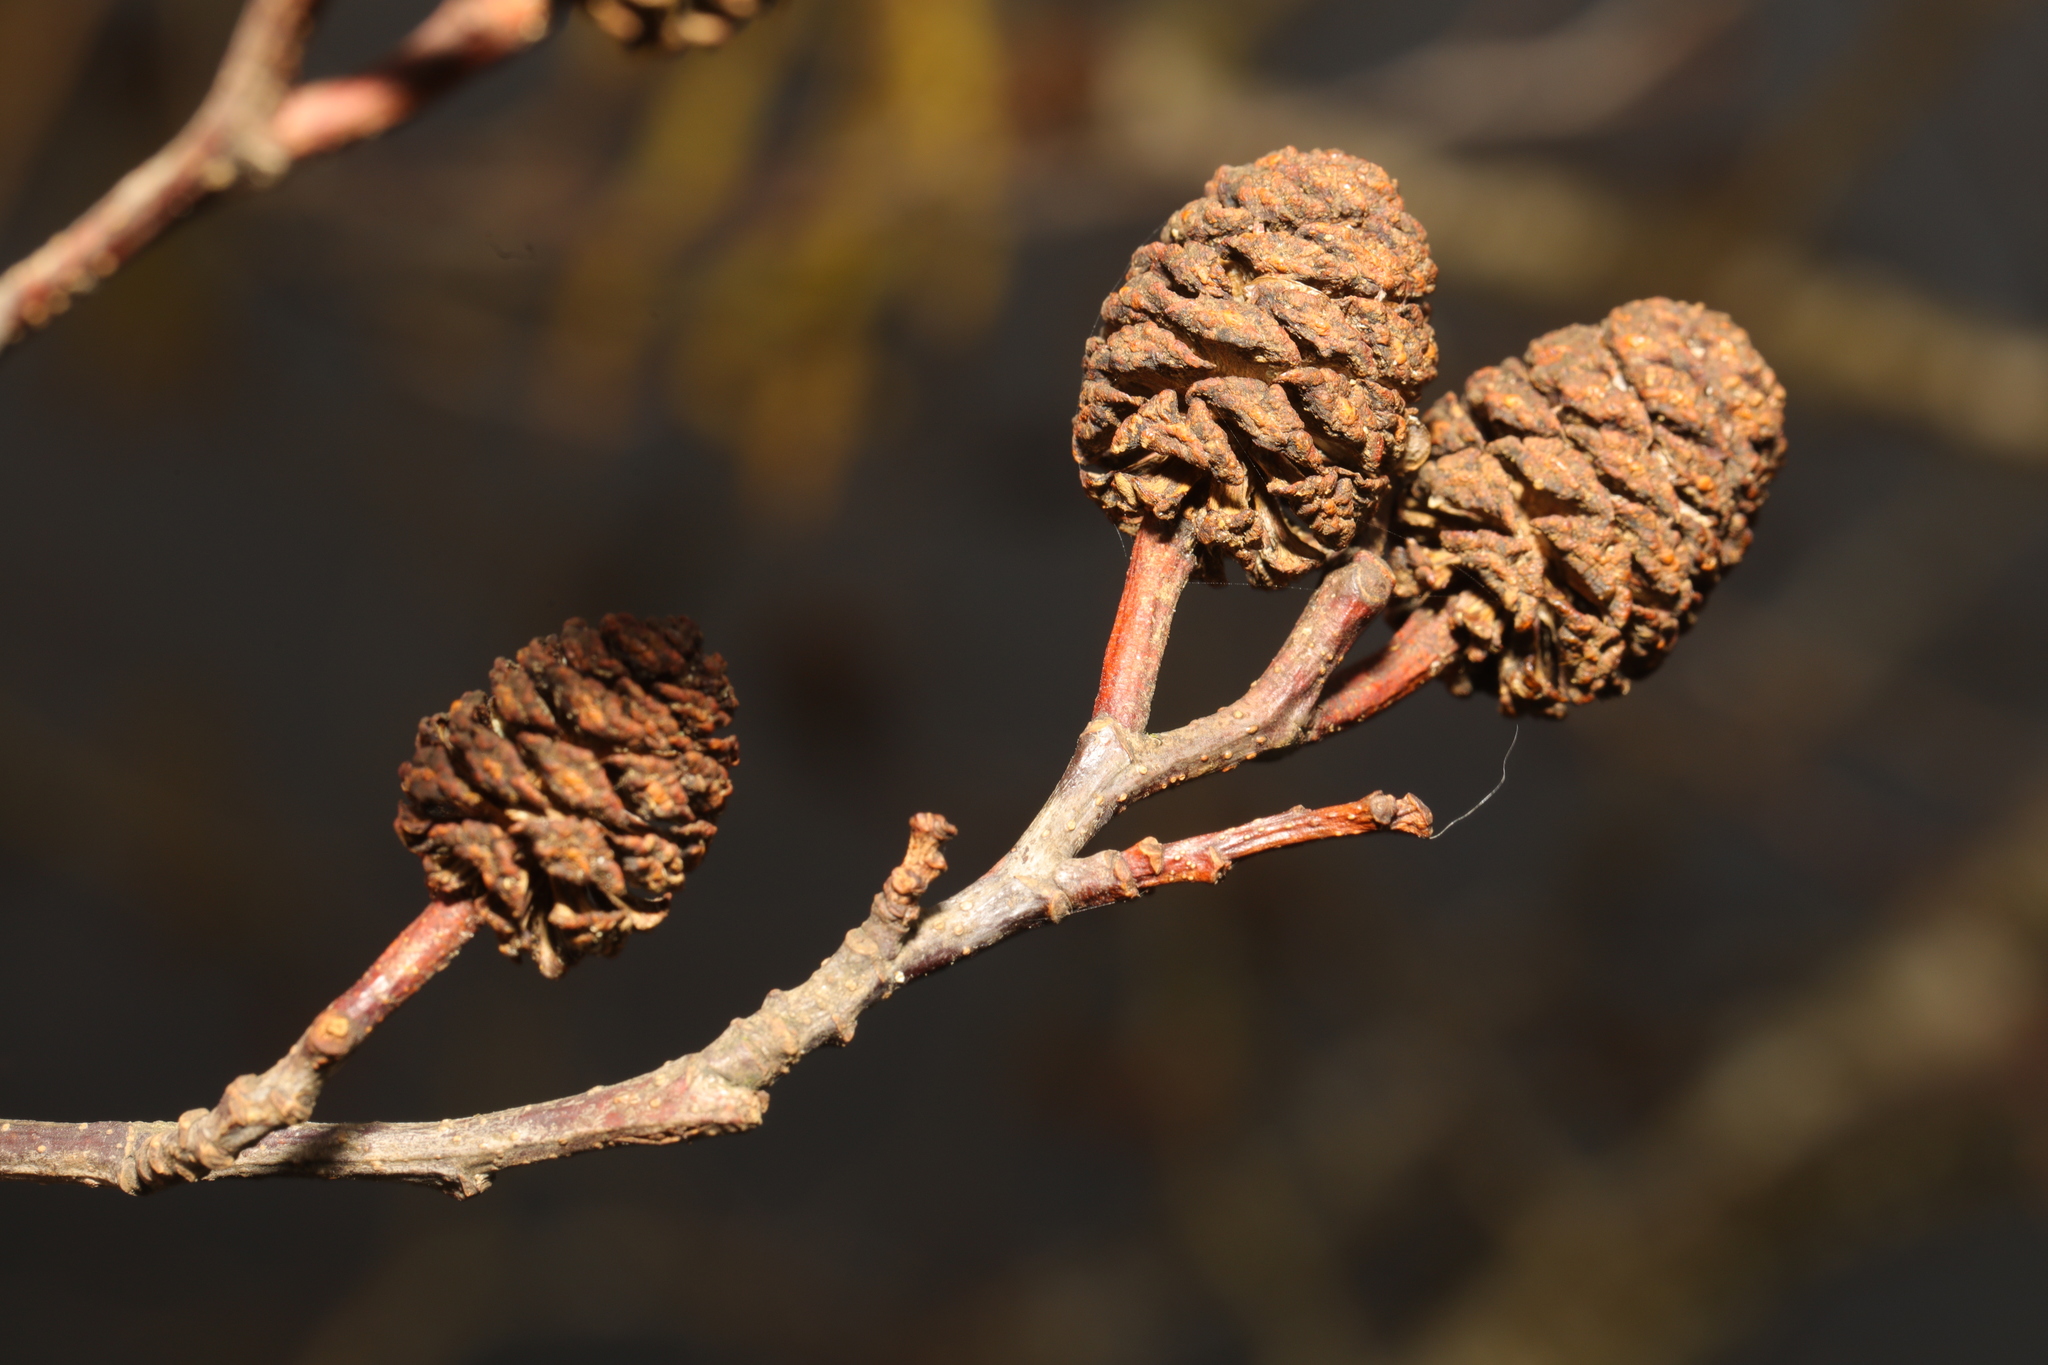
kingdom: Plantae
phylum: Tracheophyta
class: Magnoliopsida
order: Fagales
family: Betulaceae
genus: Alnus
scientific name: Alnus glutinosa
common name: Black alder
